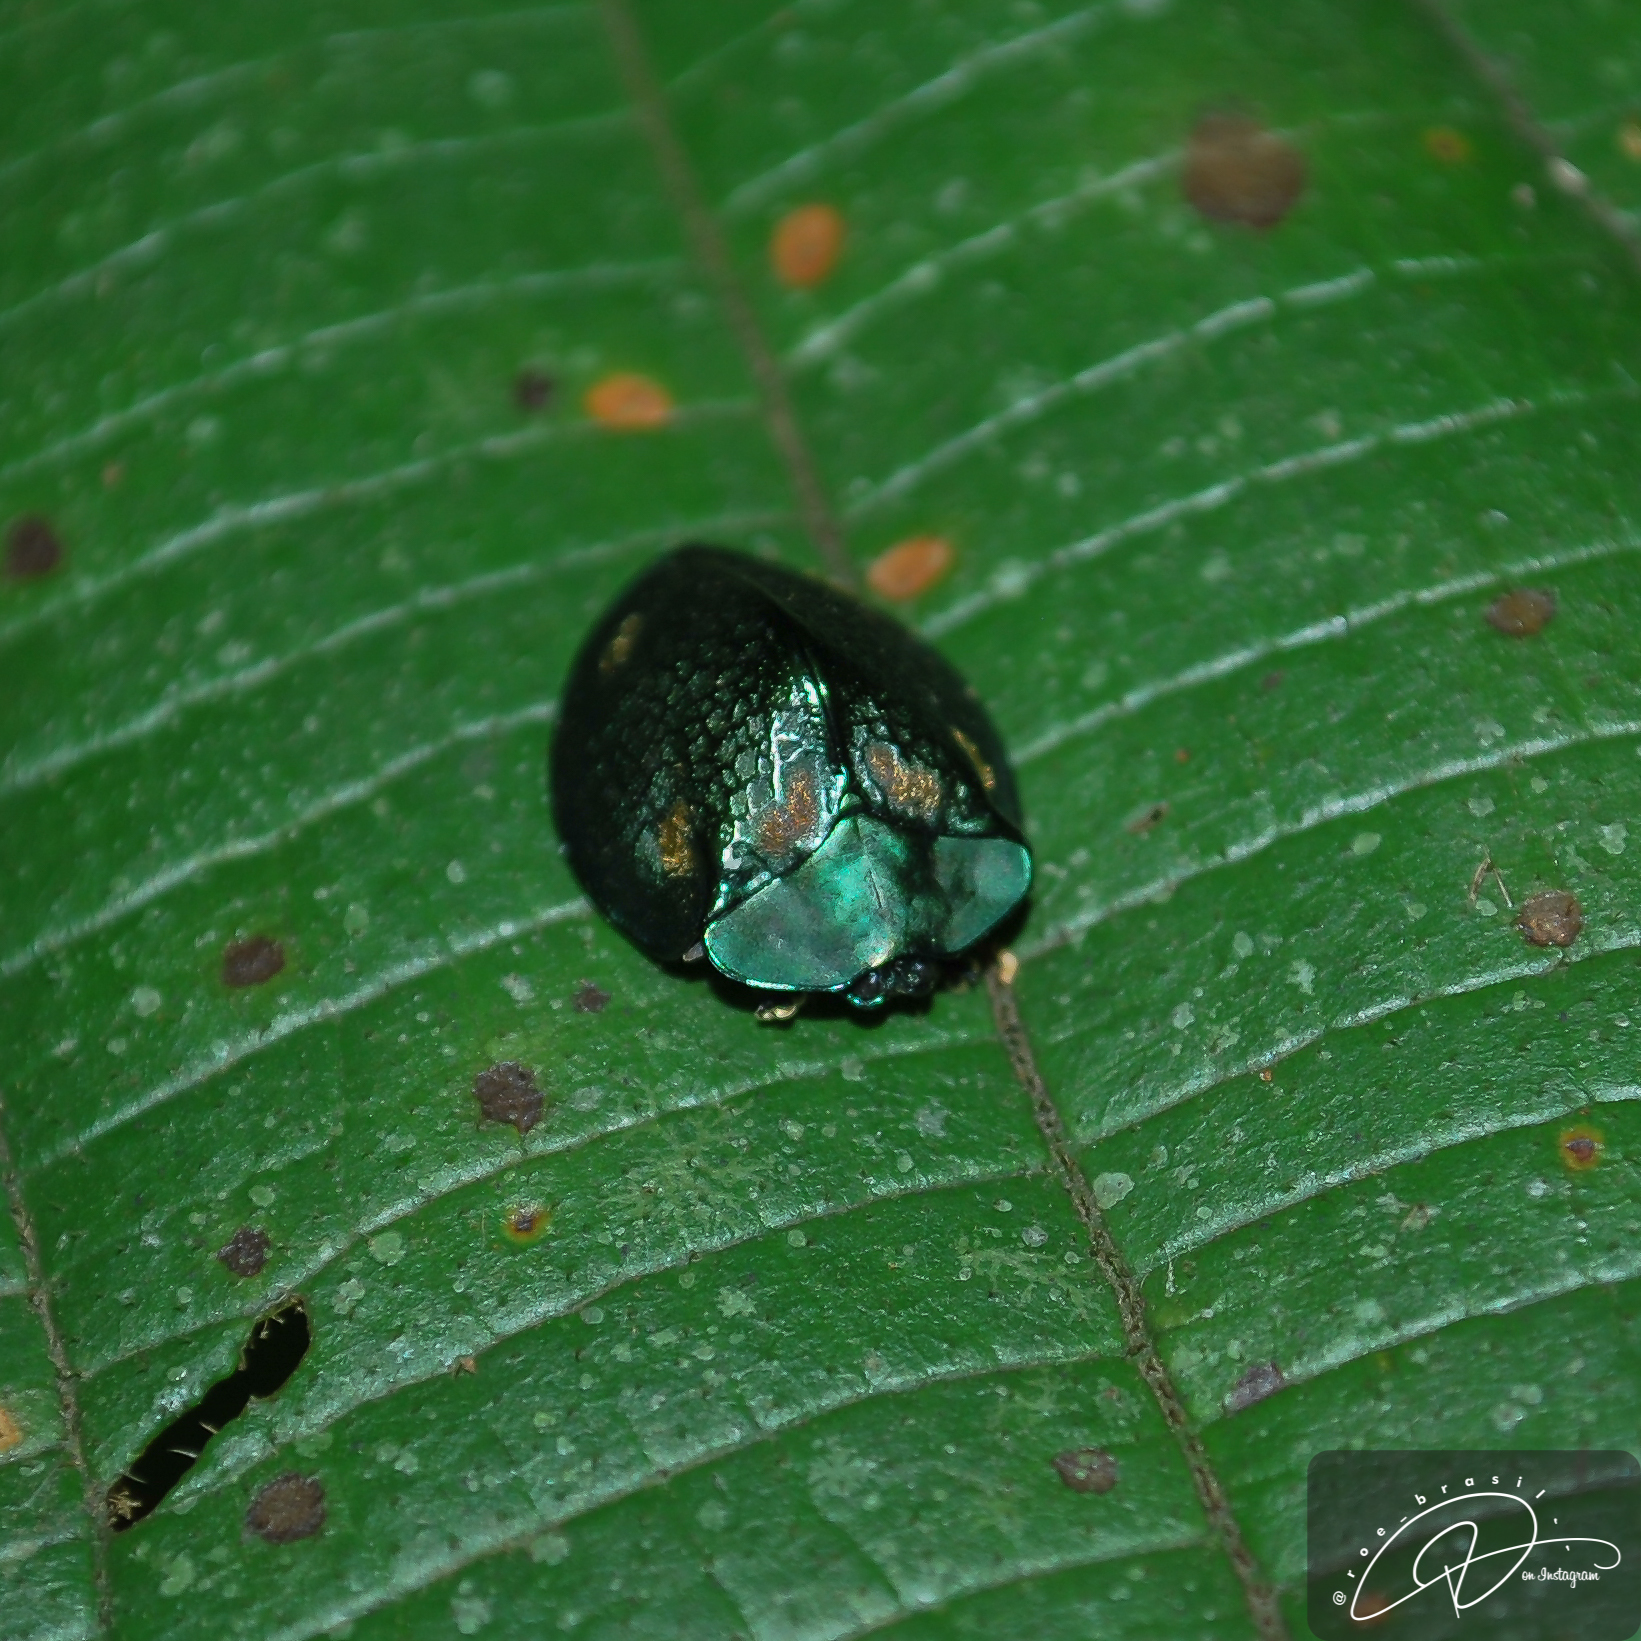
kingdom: Animalia
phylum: Arthropoda
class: Insecta
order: Coleoptera
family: Chrysomelidae
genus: Stolas
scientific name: Stolas sexsignata
